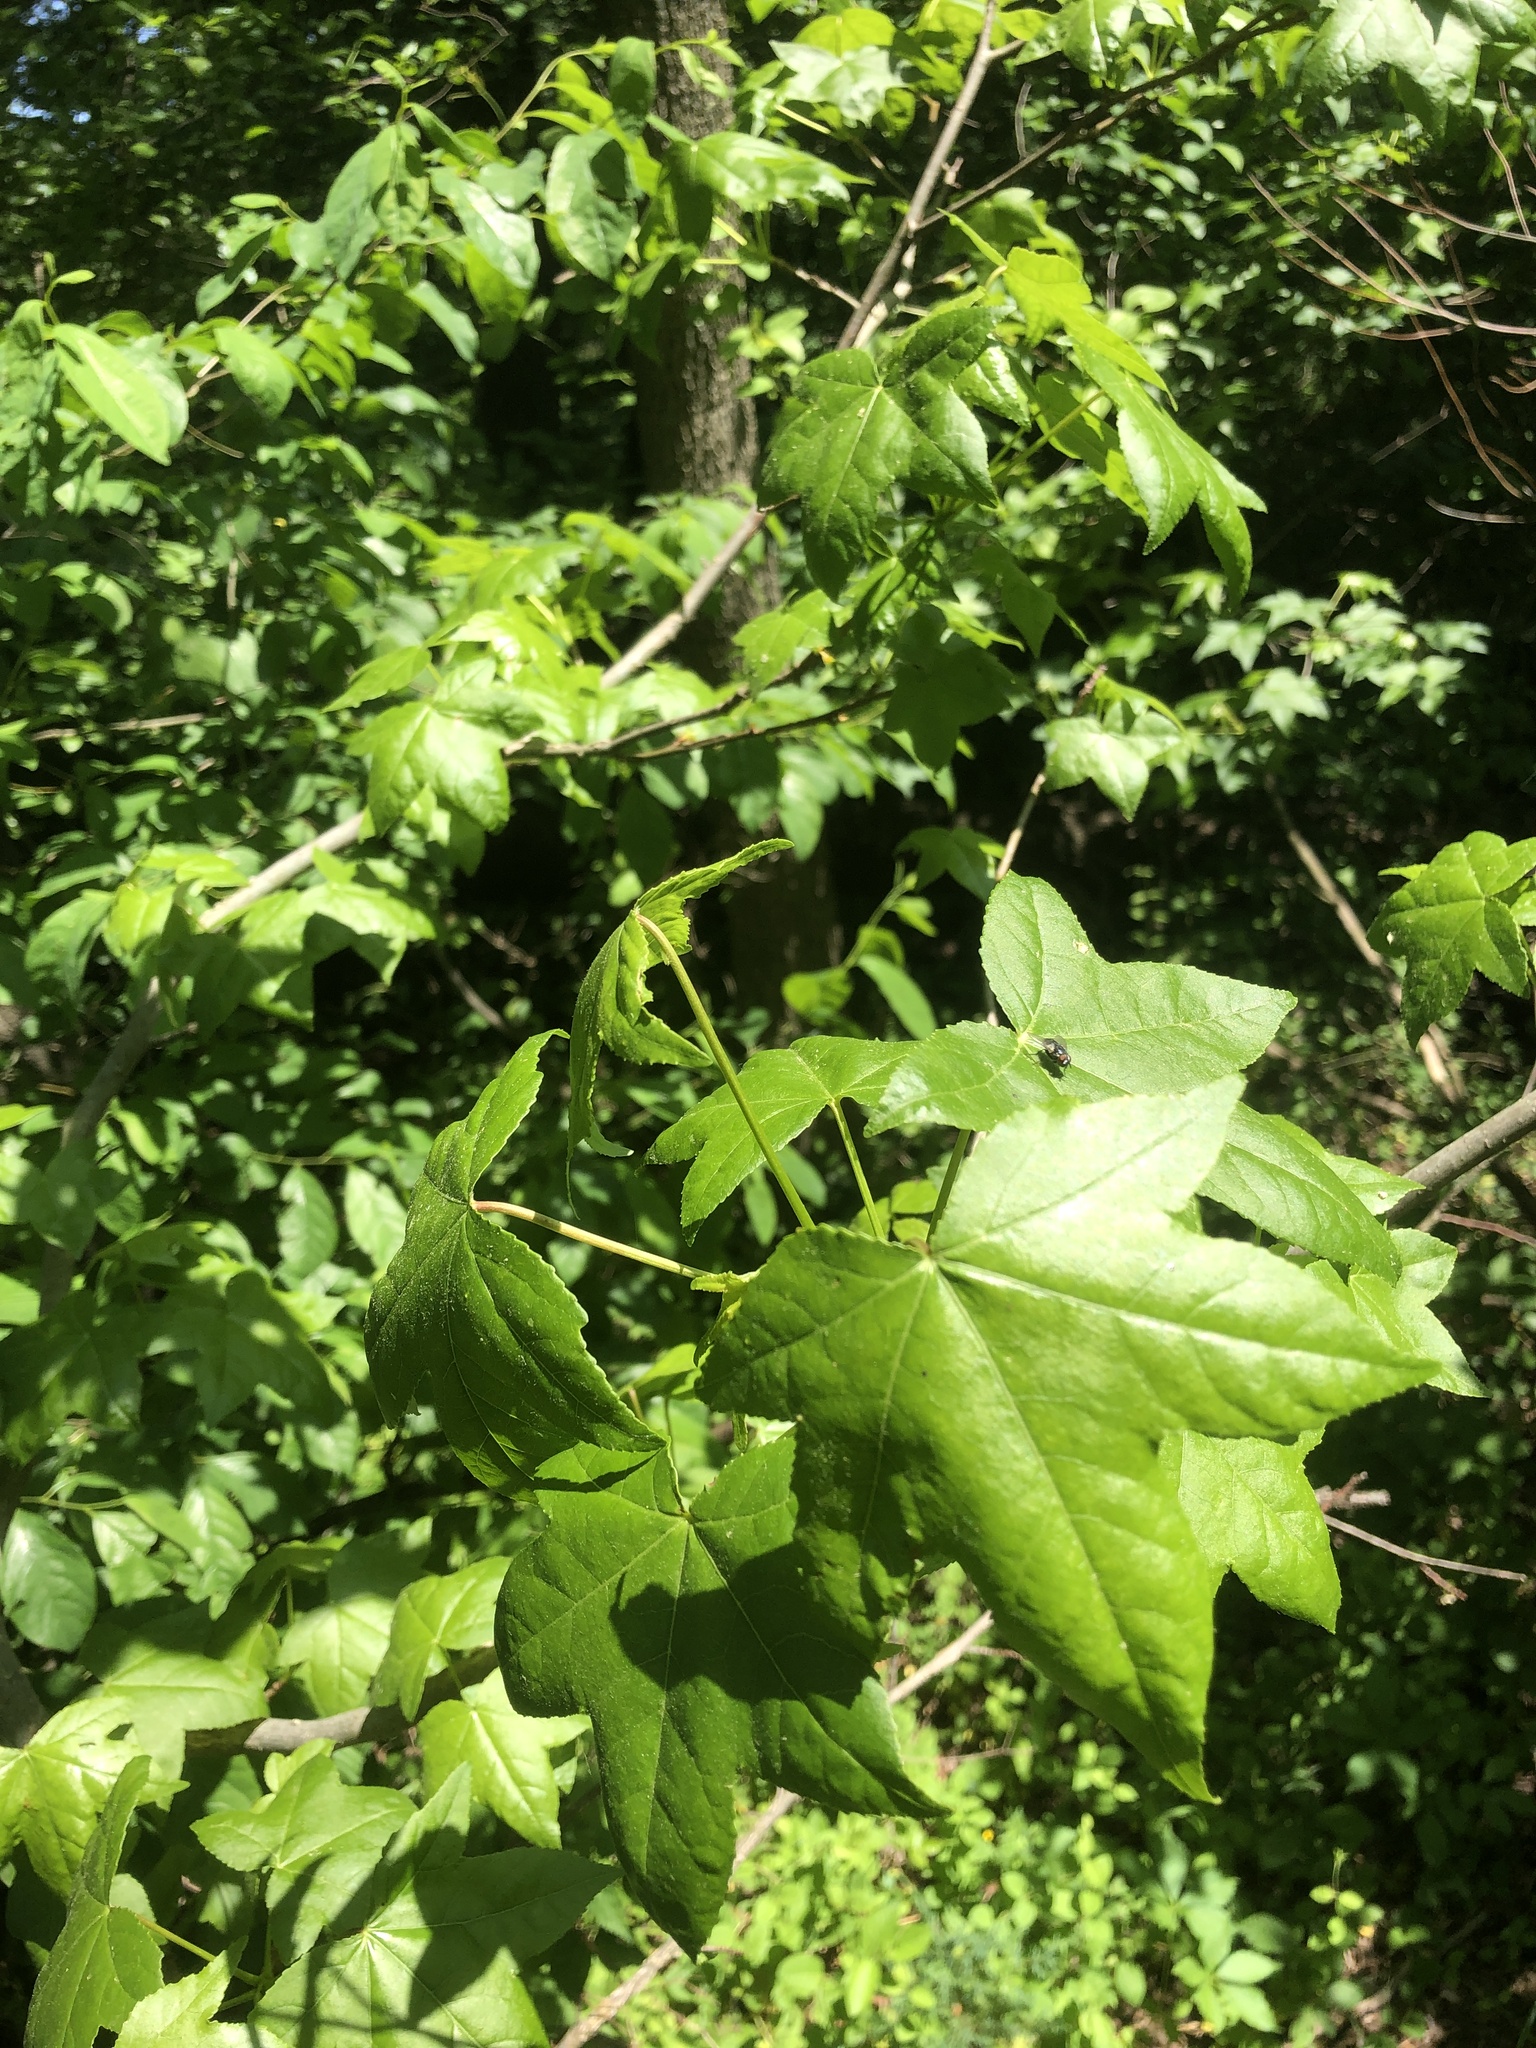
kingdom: Plantae
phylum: Tracheophyta
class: Magnoliopsida
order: Saxifragales
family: Altingiaceae
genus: Liquidambar
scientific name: Liquidambar styraciflua
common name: Sweet gum
